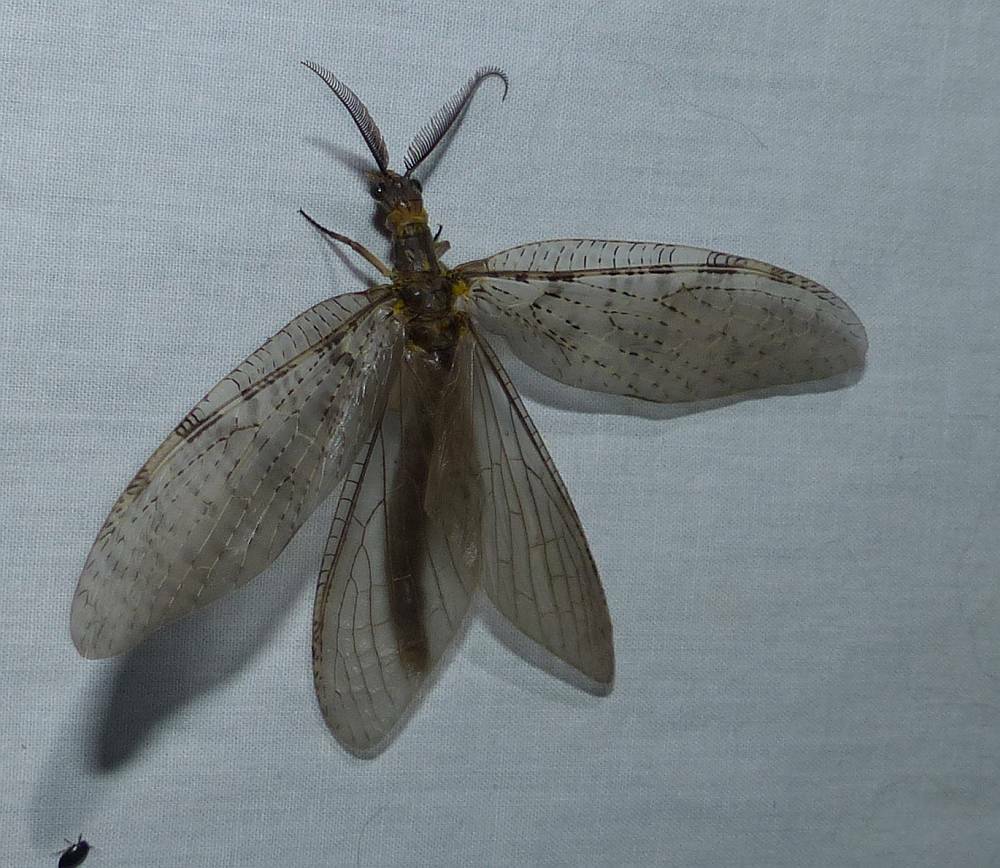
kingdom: Animalia
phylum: Arthropoda
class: Insecta
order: Megaloptera
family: Corydalidae
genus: Chauliodes
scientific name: Chauliodes pectinicornis
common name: Summer fishfly
